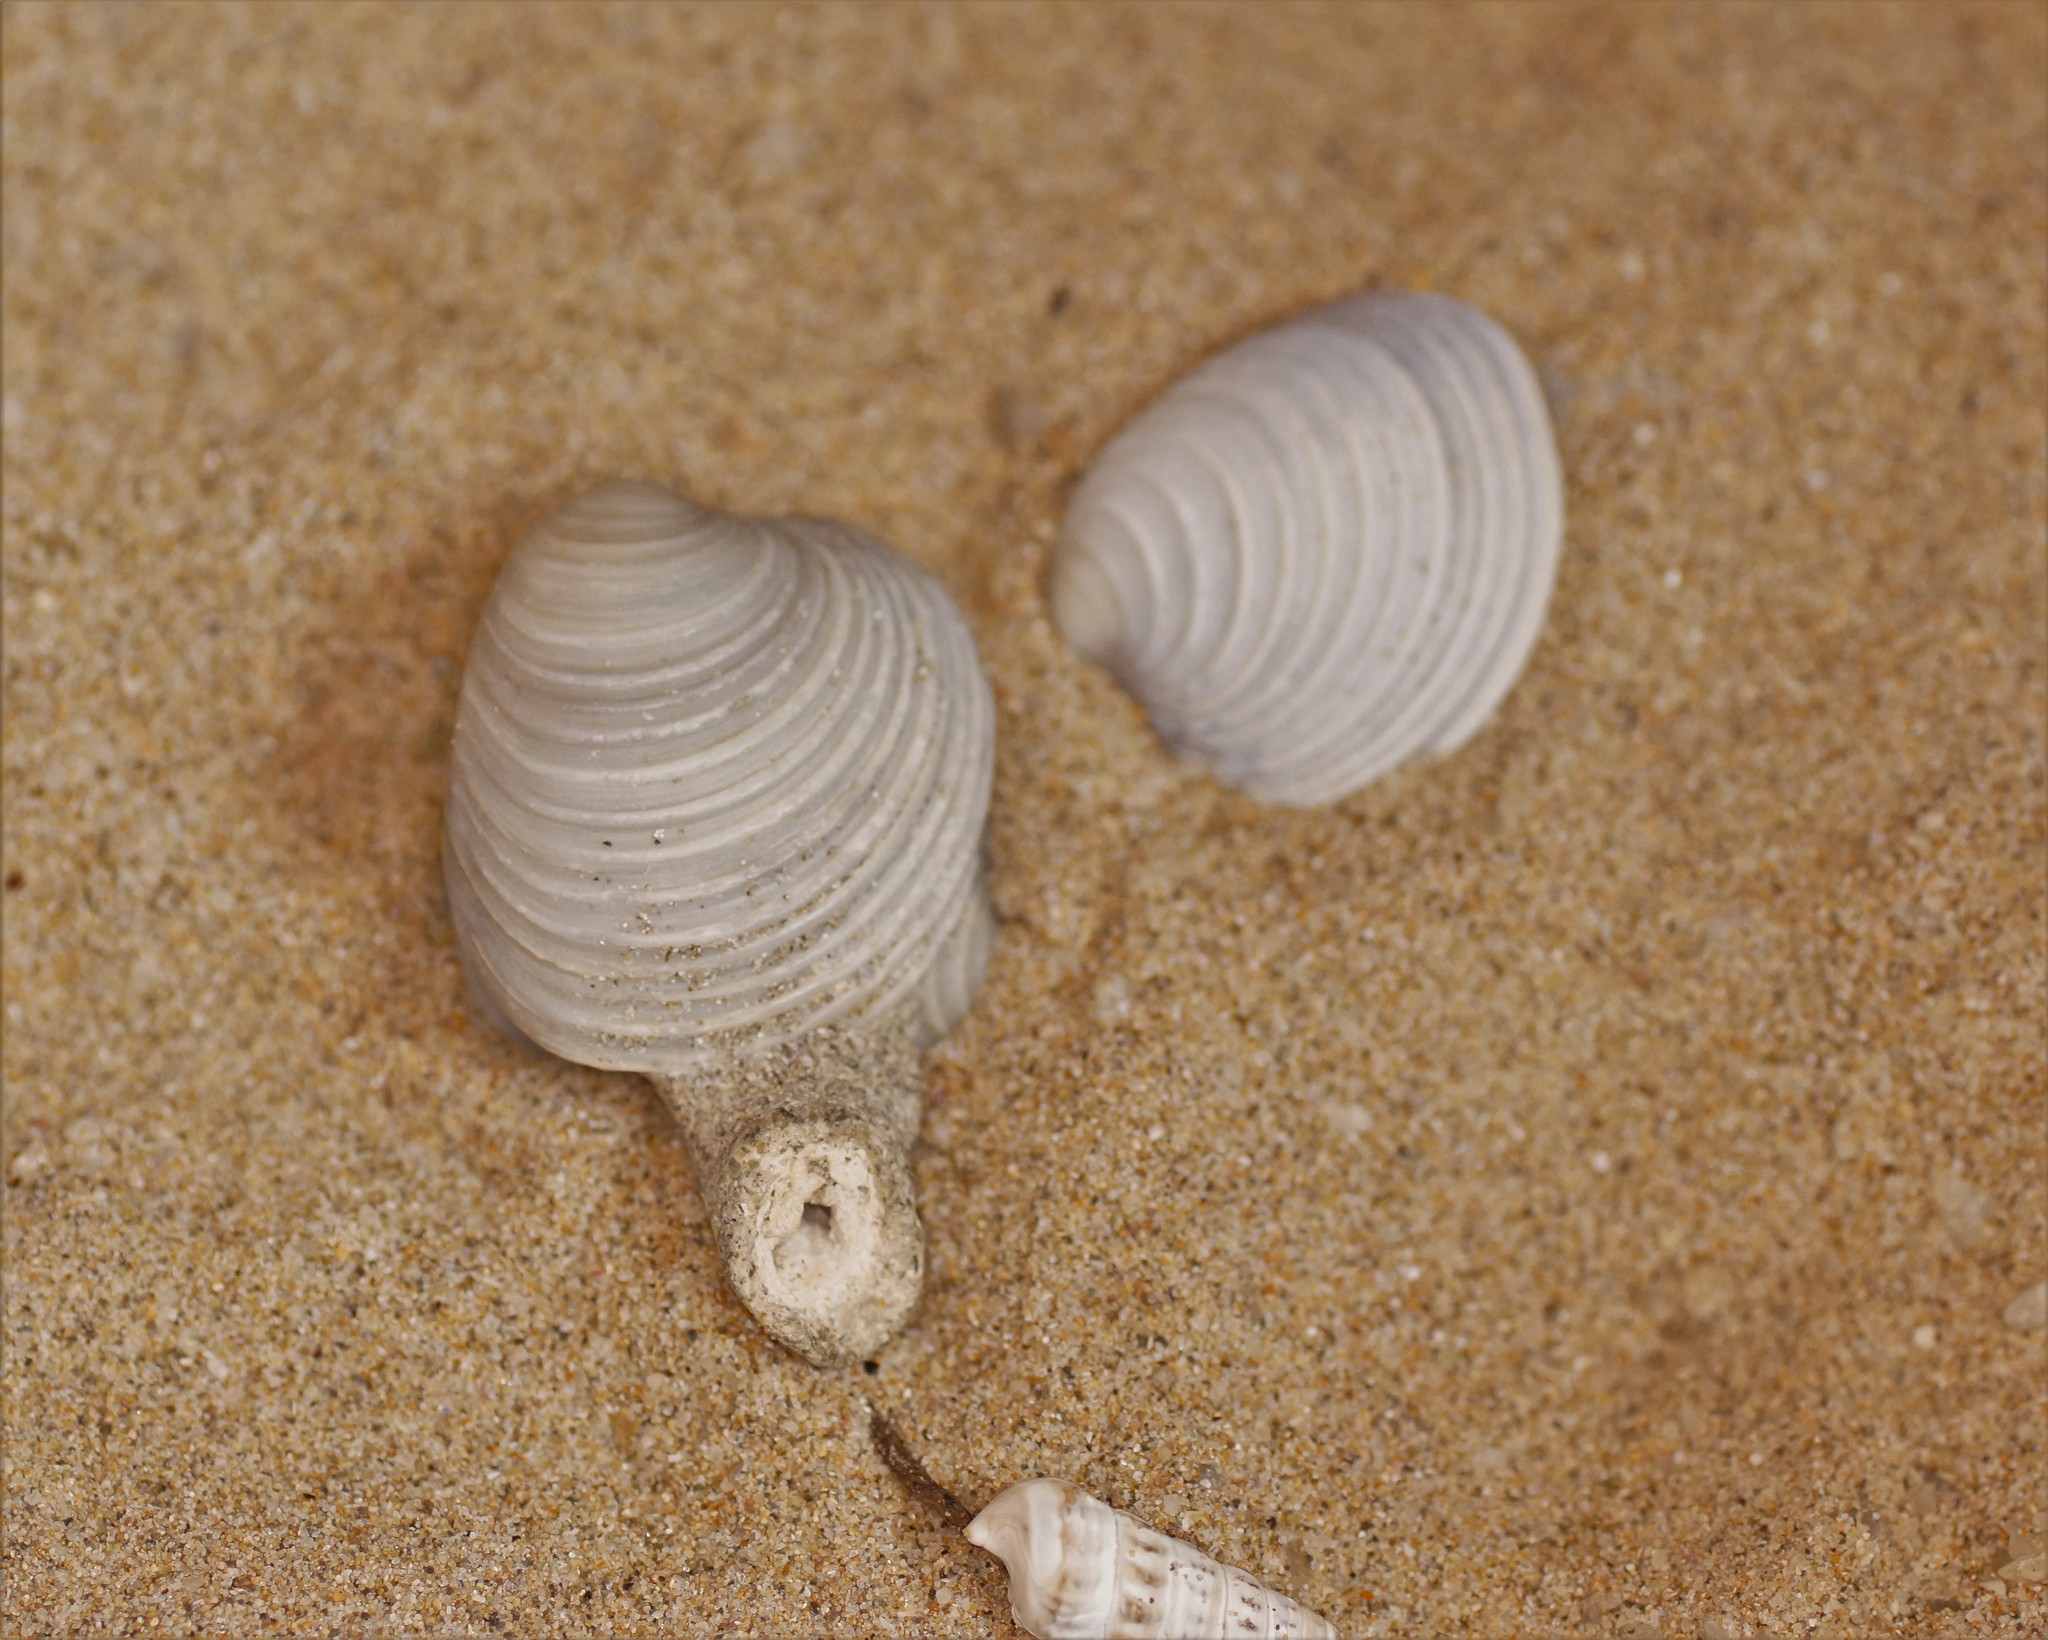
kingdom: Animalia
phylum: Mollusca
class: Bivalvia
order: Venerida
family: Veneridae
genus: Placamen
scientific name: Placamen placidum
